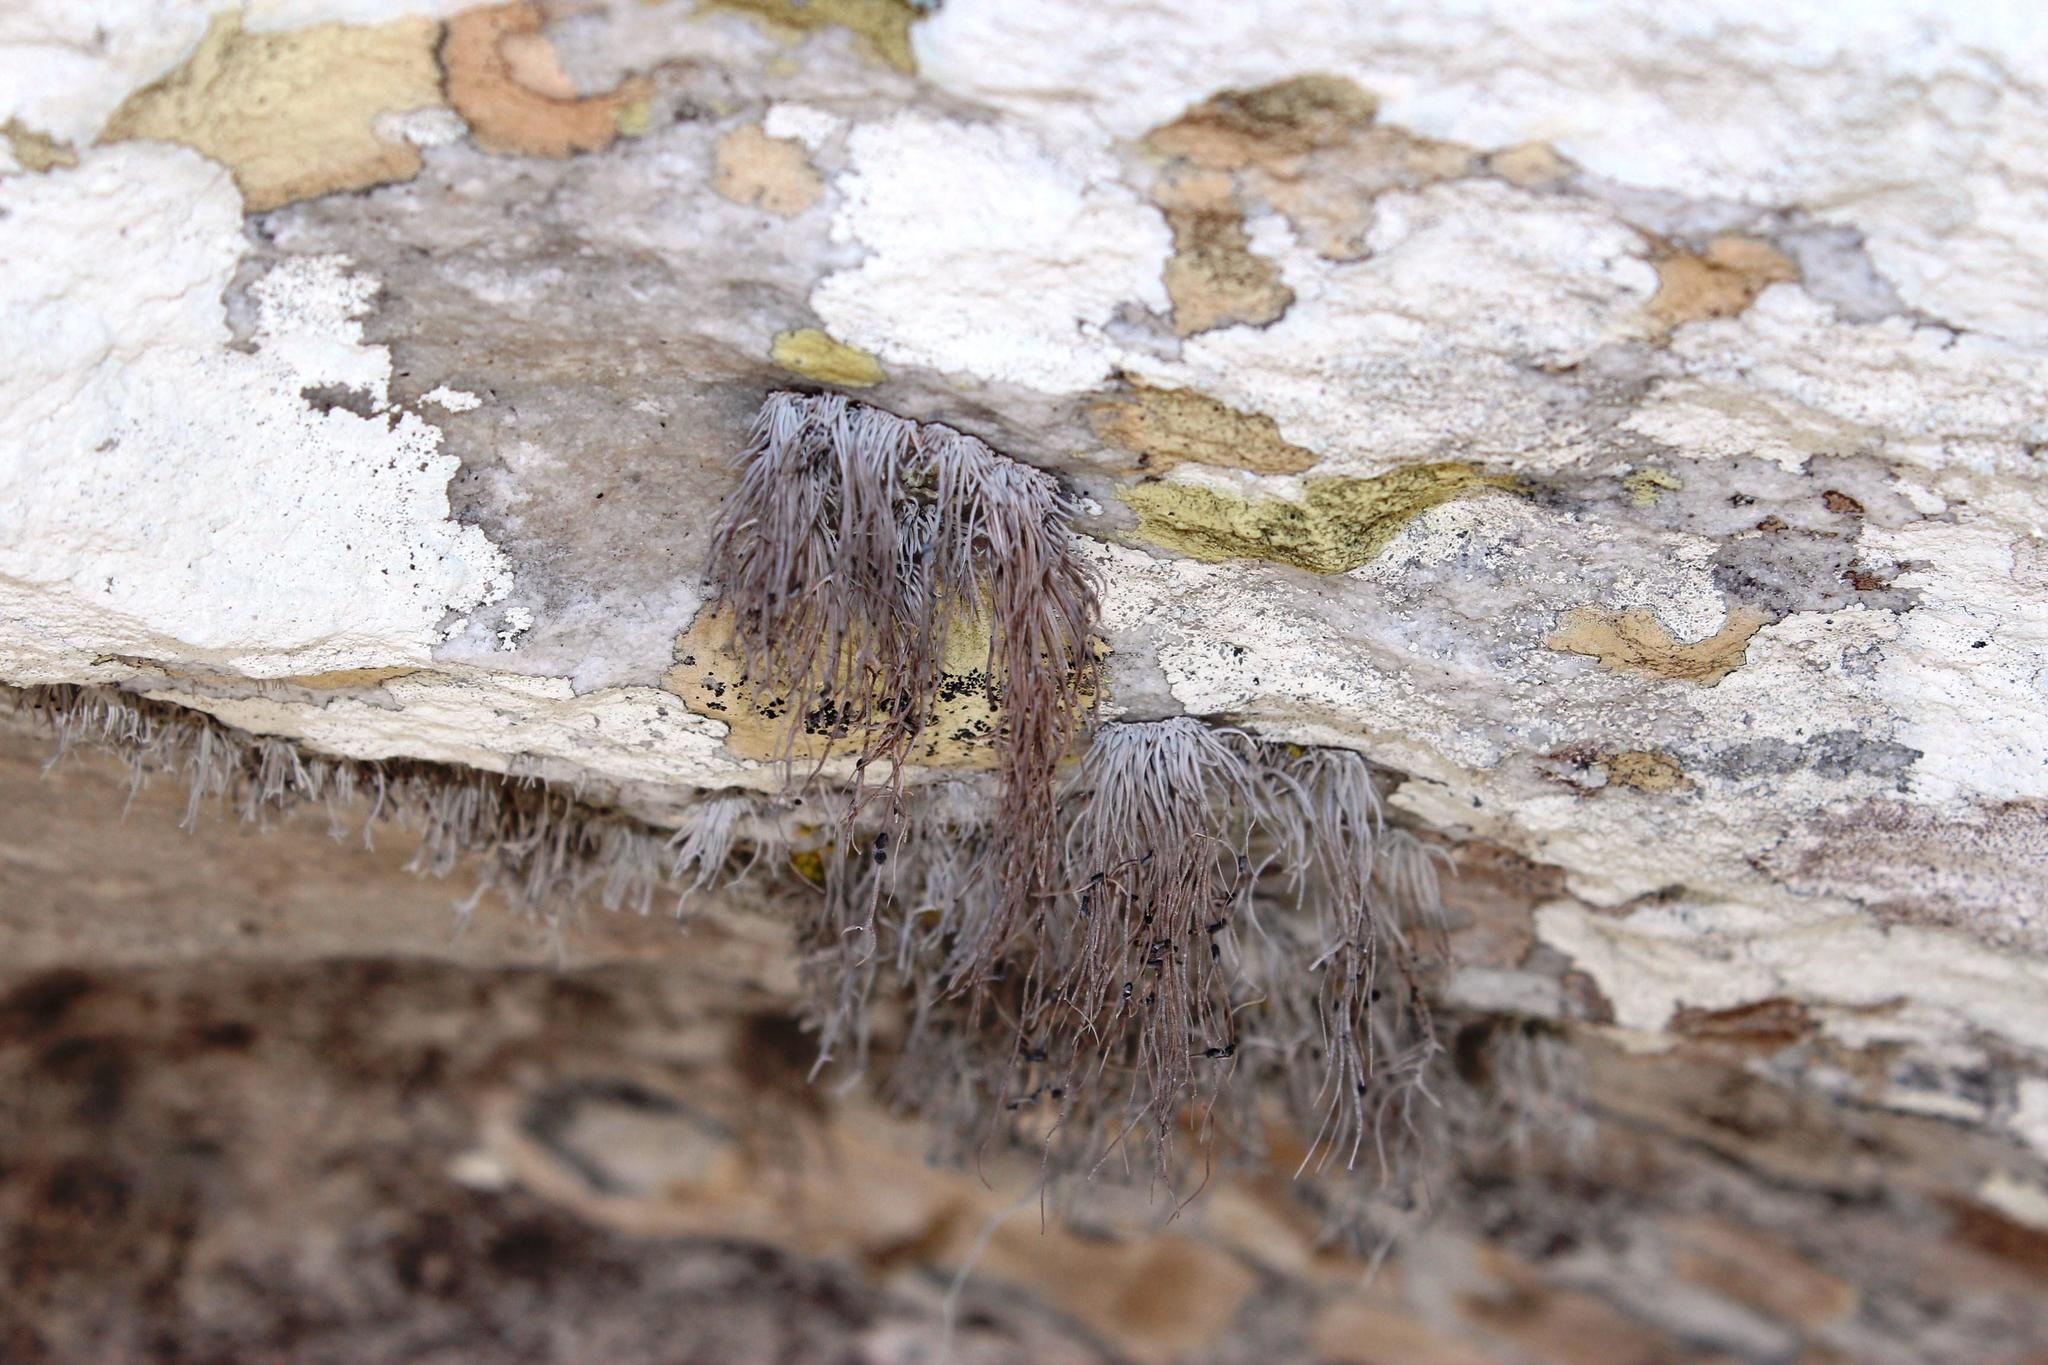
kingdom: Fungi
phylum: Ascomycota
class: Arthoniomycetes
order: Arthoniales
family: Roccellaceae
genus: Roccellina
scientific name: Roccellina hypomecha
